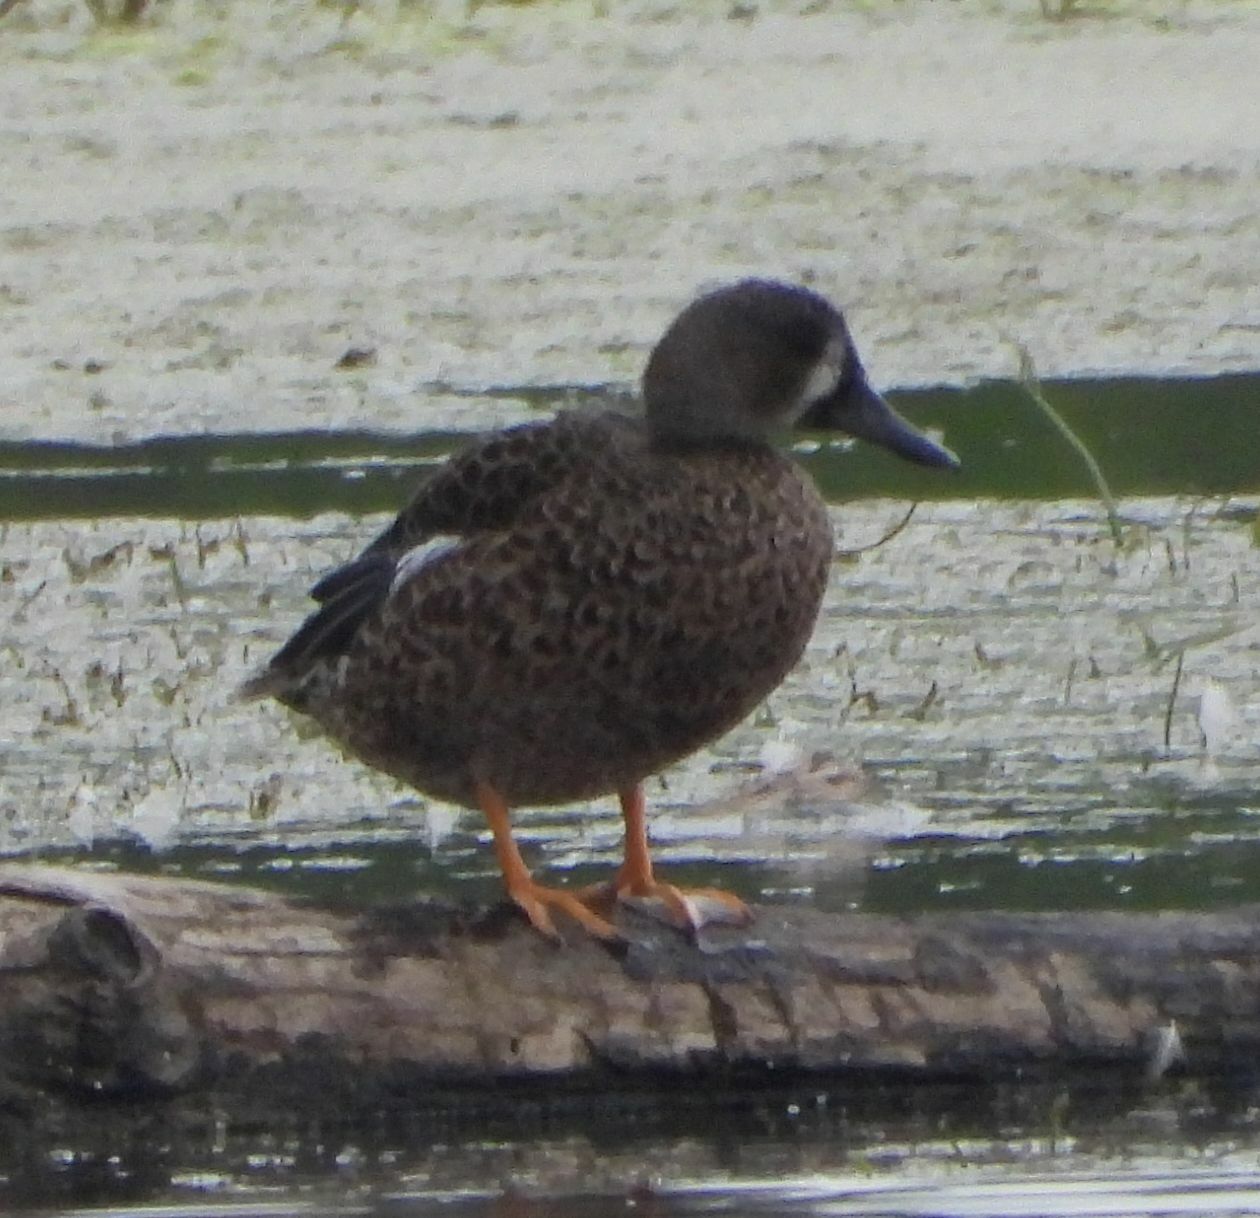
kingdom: Animalia
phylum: Chordata
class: Aves
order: Anseriformes
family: Anatidae
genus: Spatula
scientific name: Spatula discors
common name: Blue-winged teal
